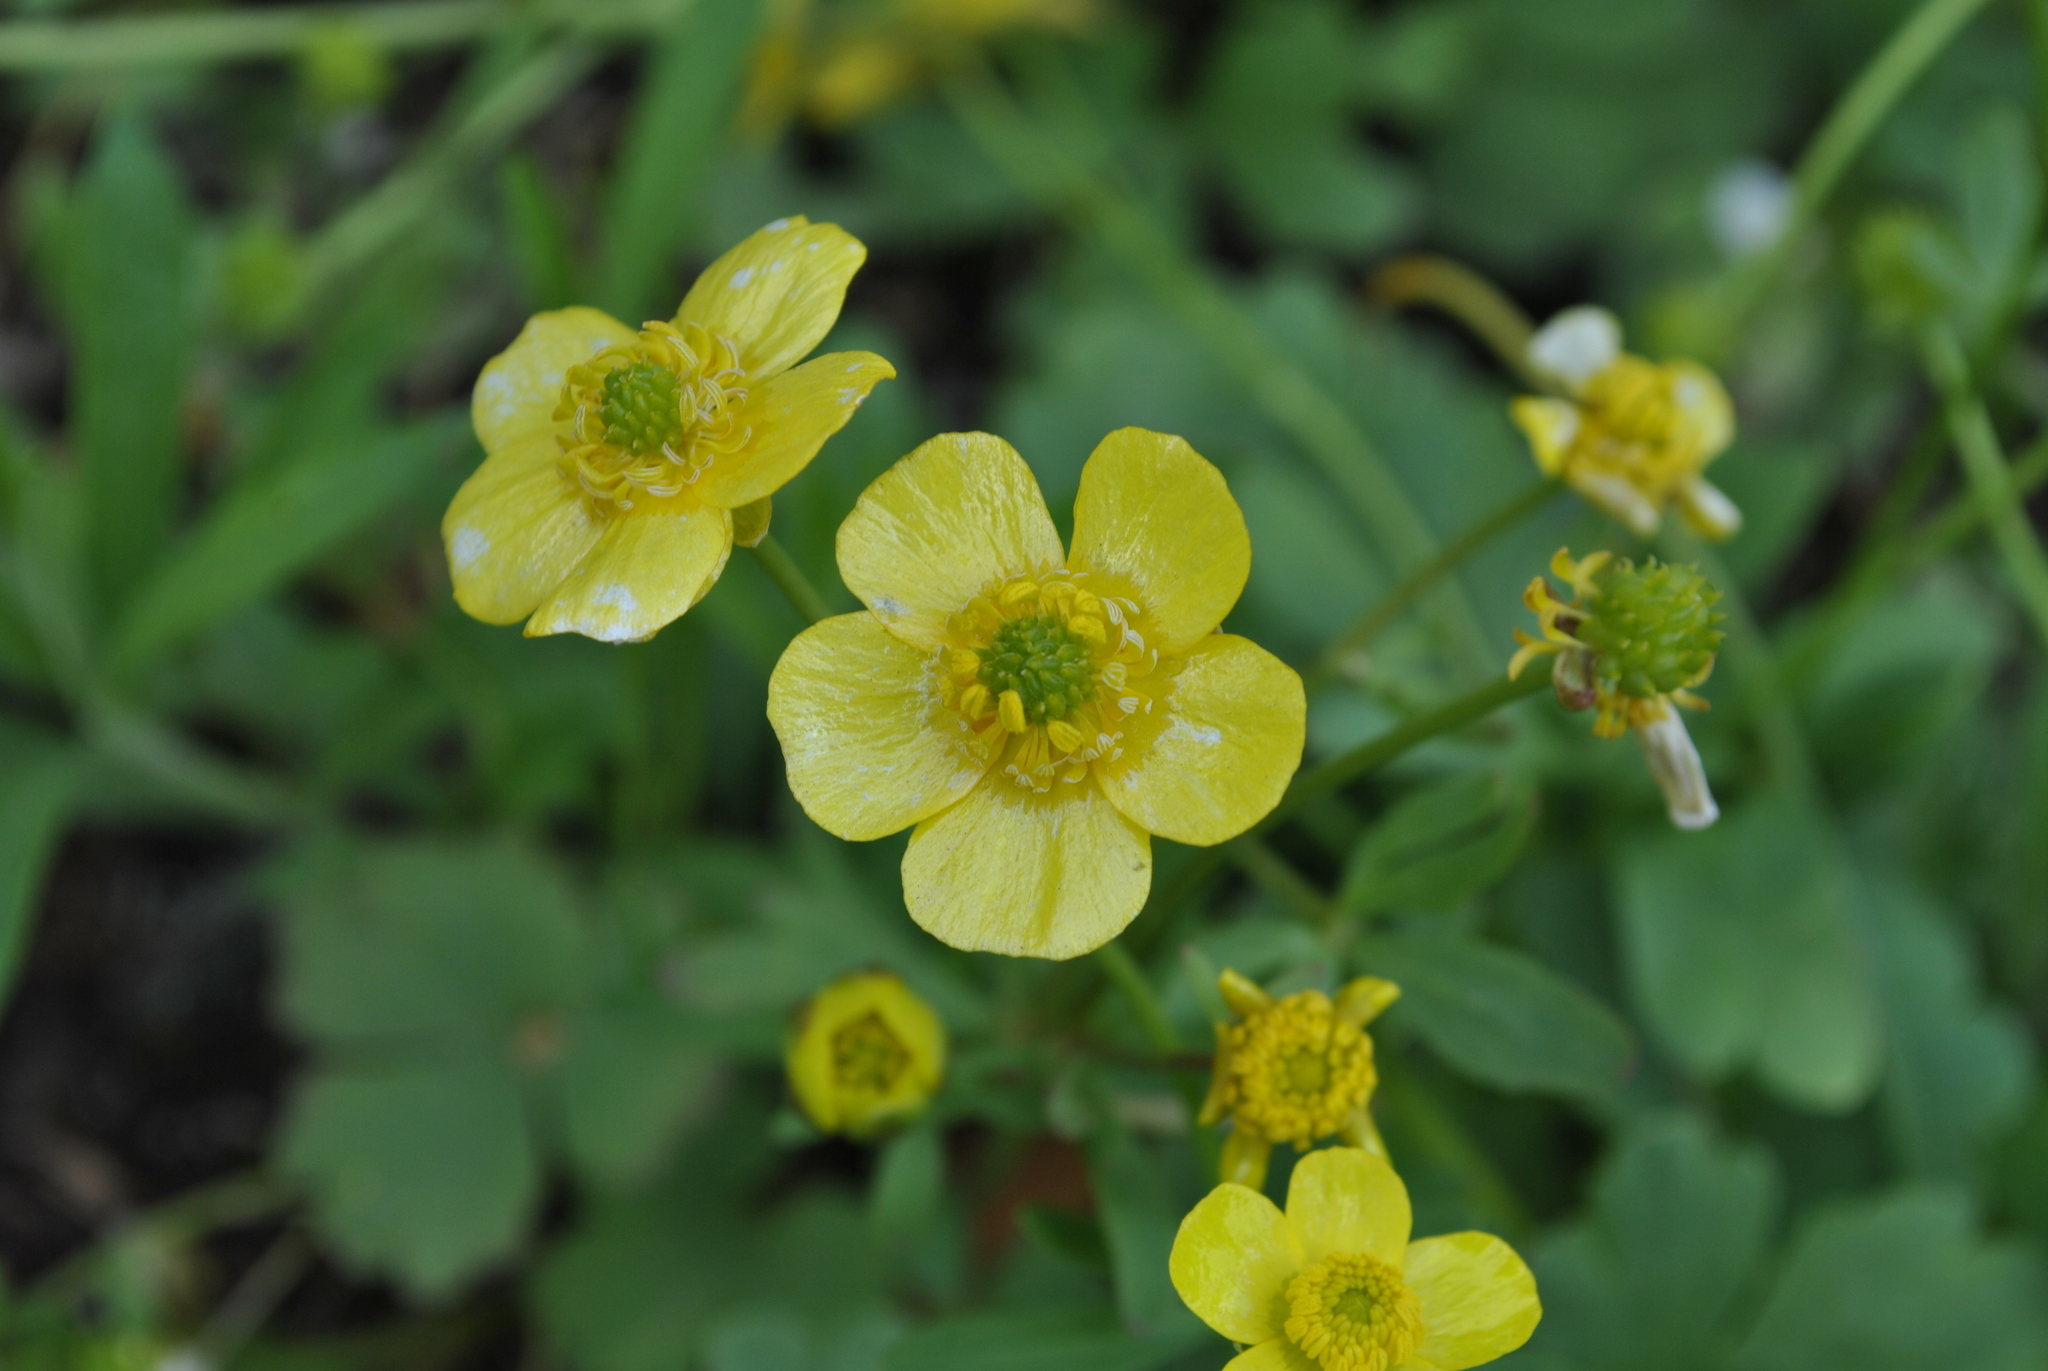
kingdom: Plantae
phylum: Tracheophyta
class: Magnoliopsida
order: Ranunculales
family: Ranunculaceae
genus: Ranunculus
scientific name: Ranunculus monophyllus
